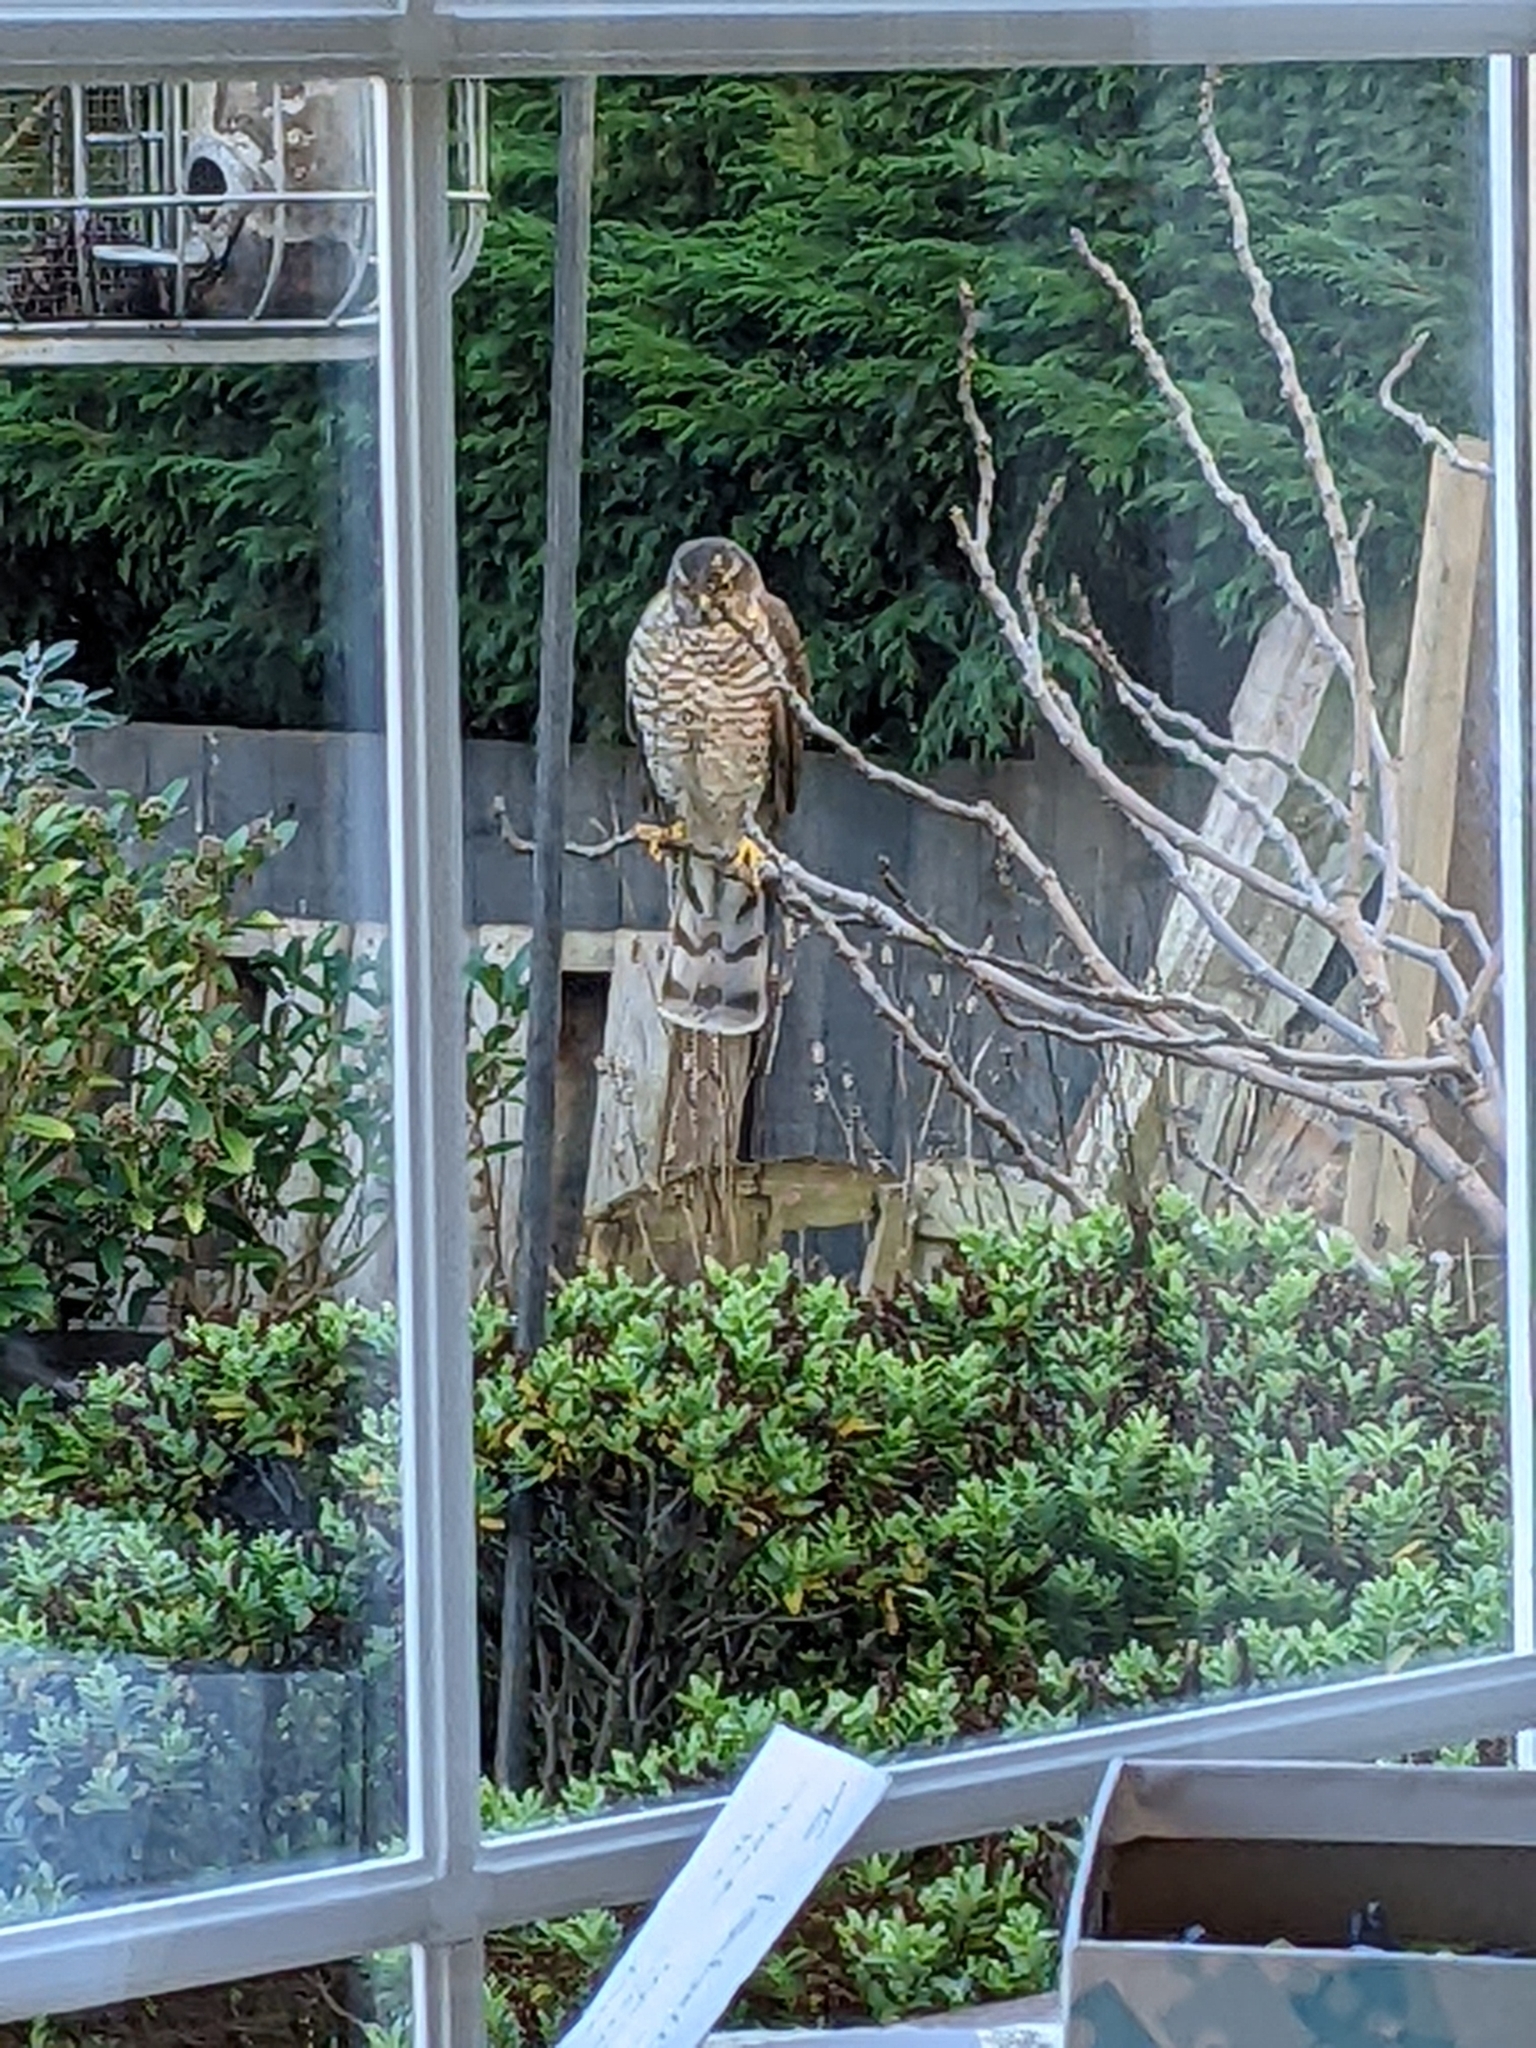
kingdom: Animalia
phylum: Chordata
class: Aves
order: Accipitriformes
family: Accipitridae
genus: Accipiter
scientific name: Accipiter nisus
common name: Eurasian sparrowhawk
